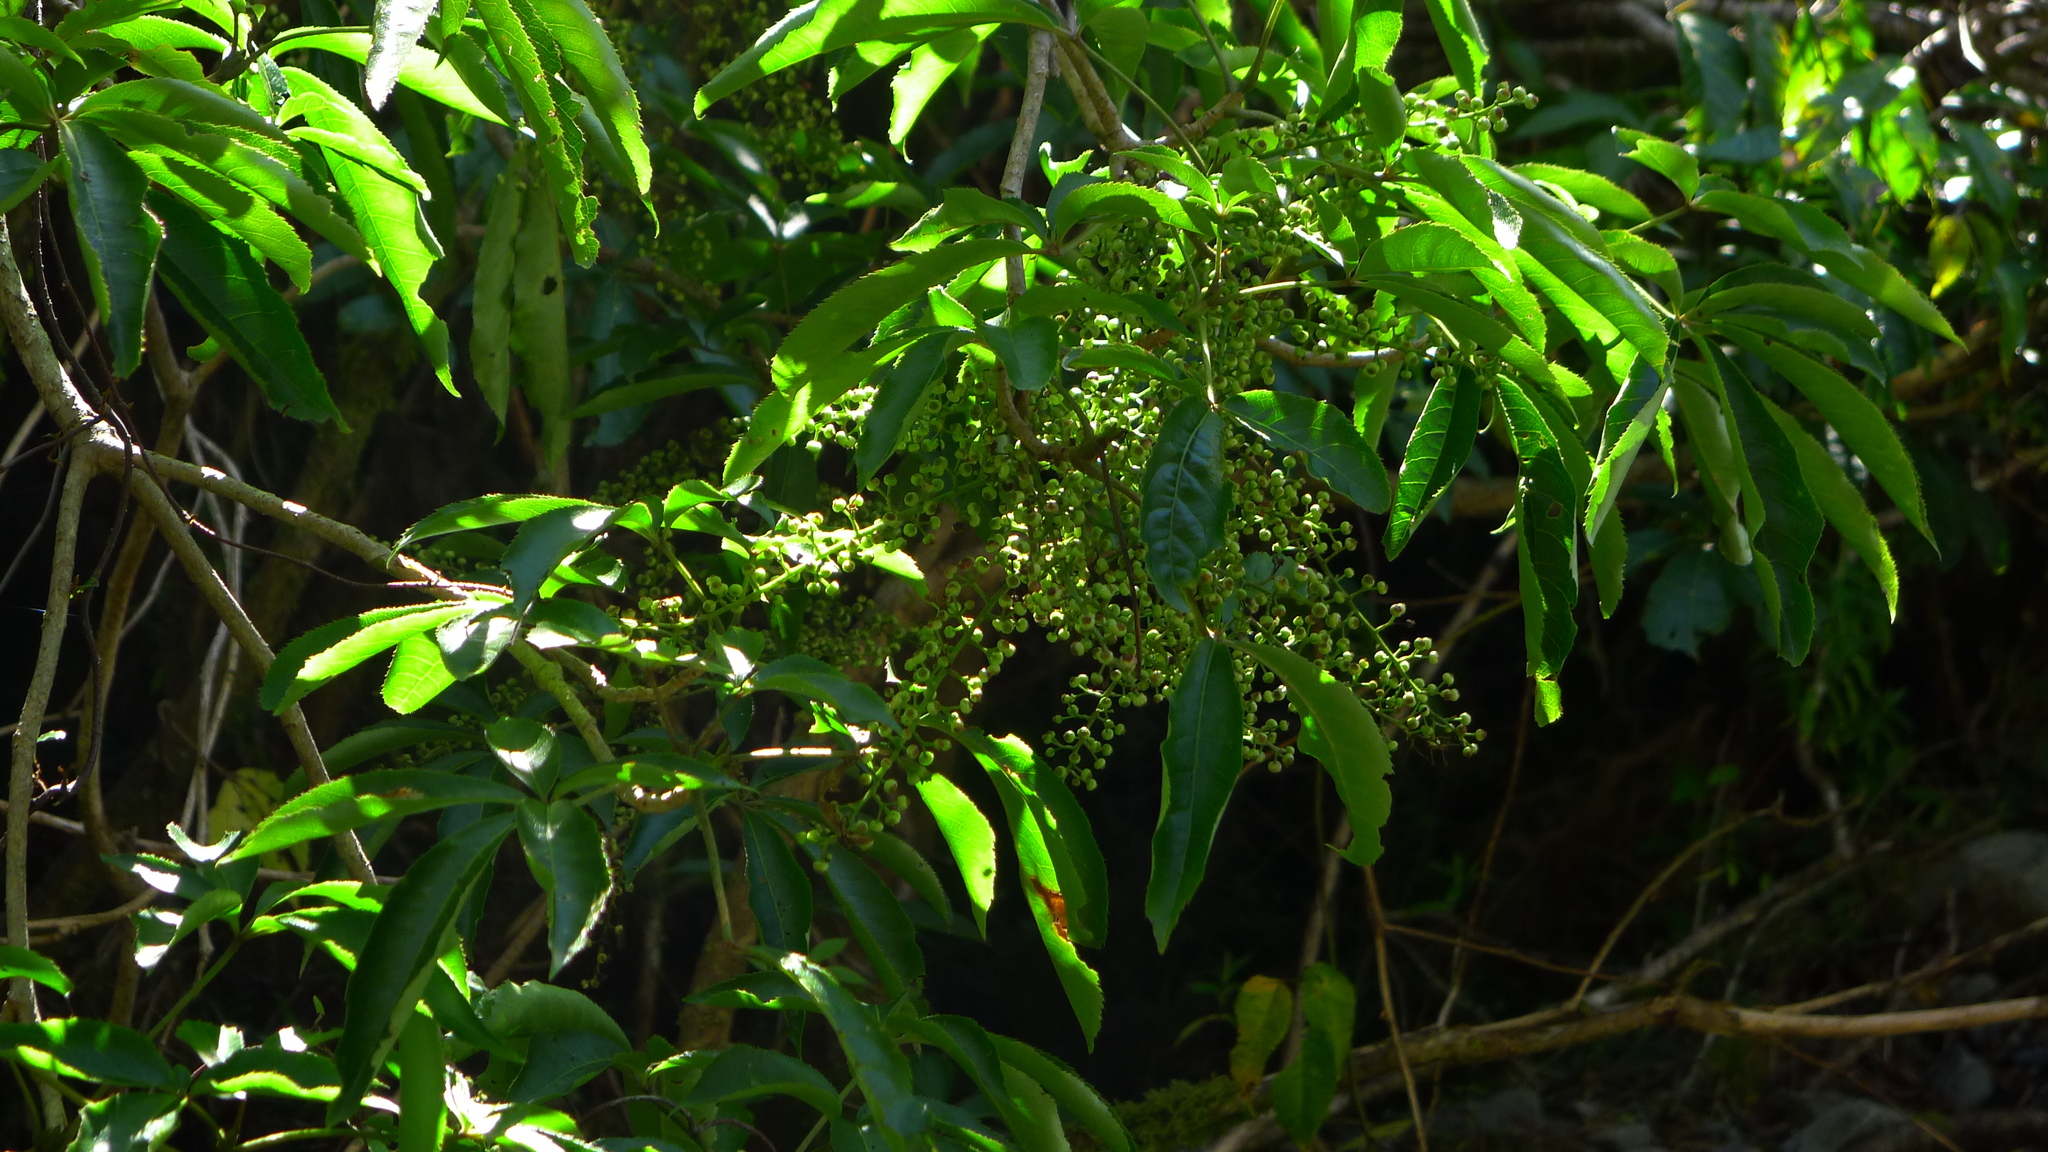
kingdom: Plantae
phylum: Tracheophyta
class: Magnoliopsida
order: Apiales
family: Araliaceae
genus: Schefflera
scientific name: Schefflera digitata
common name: Pate
